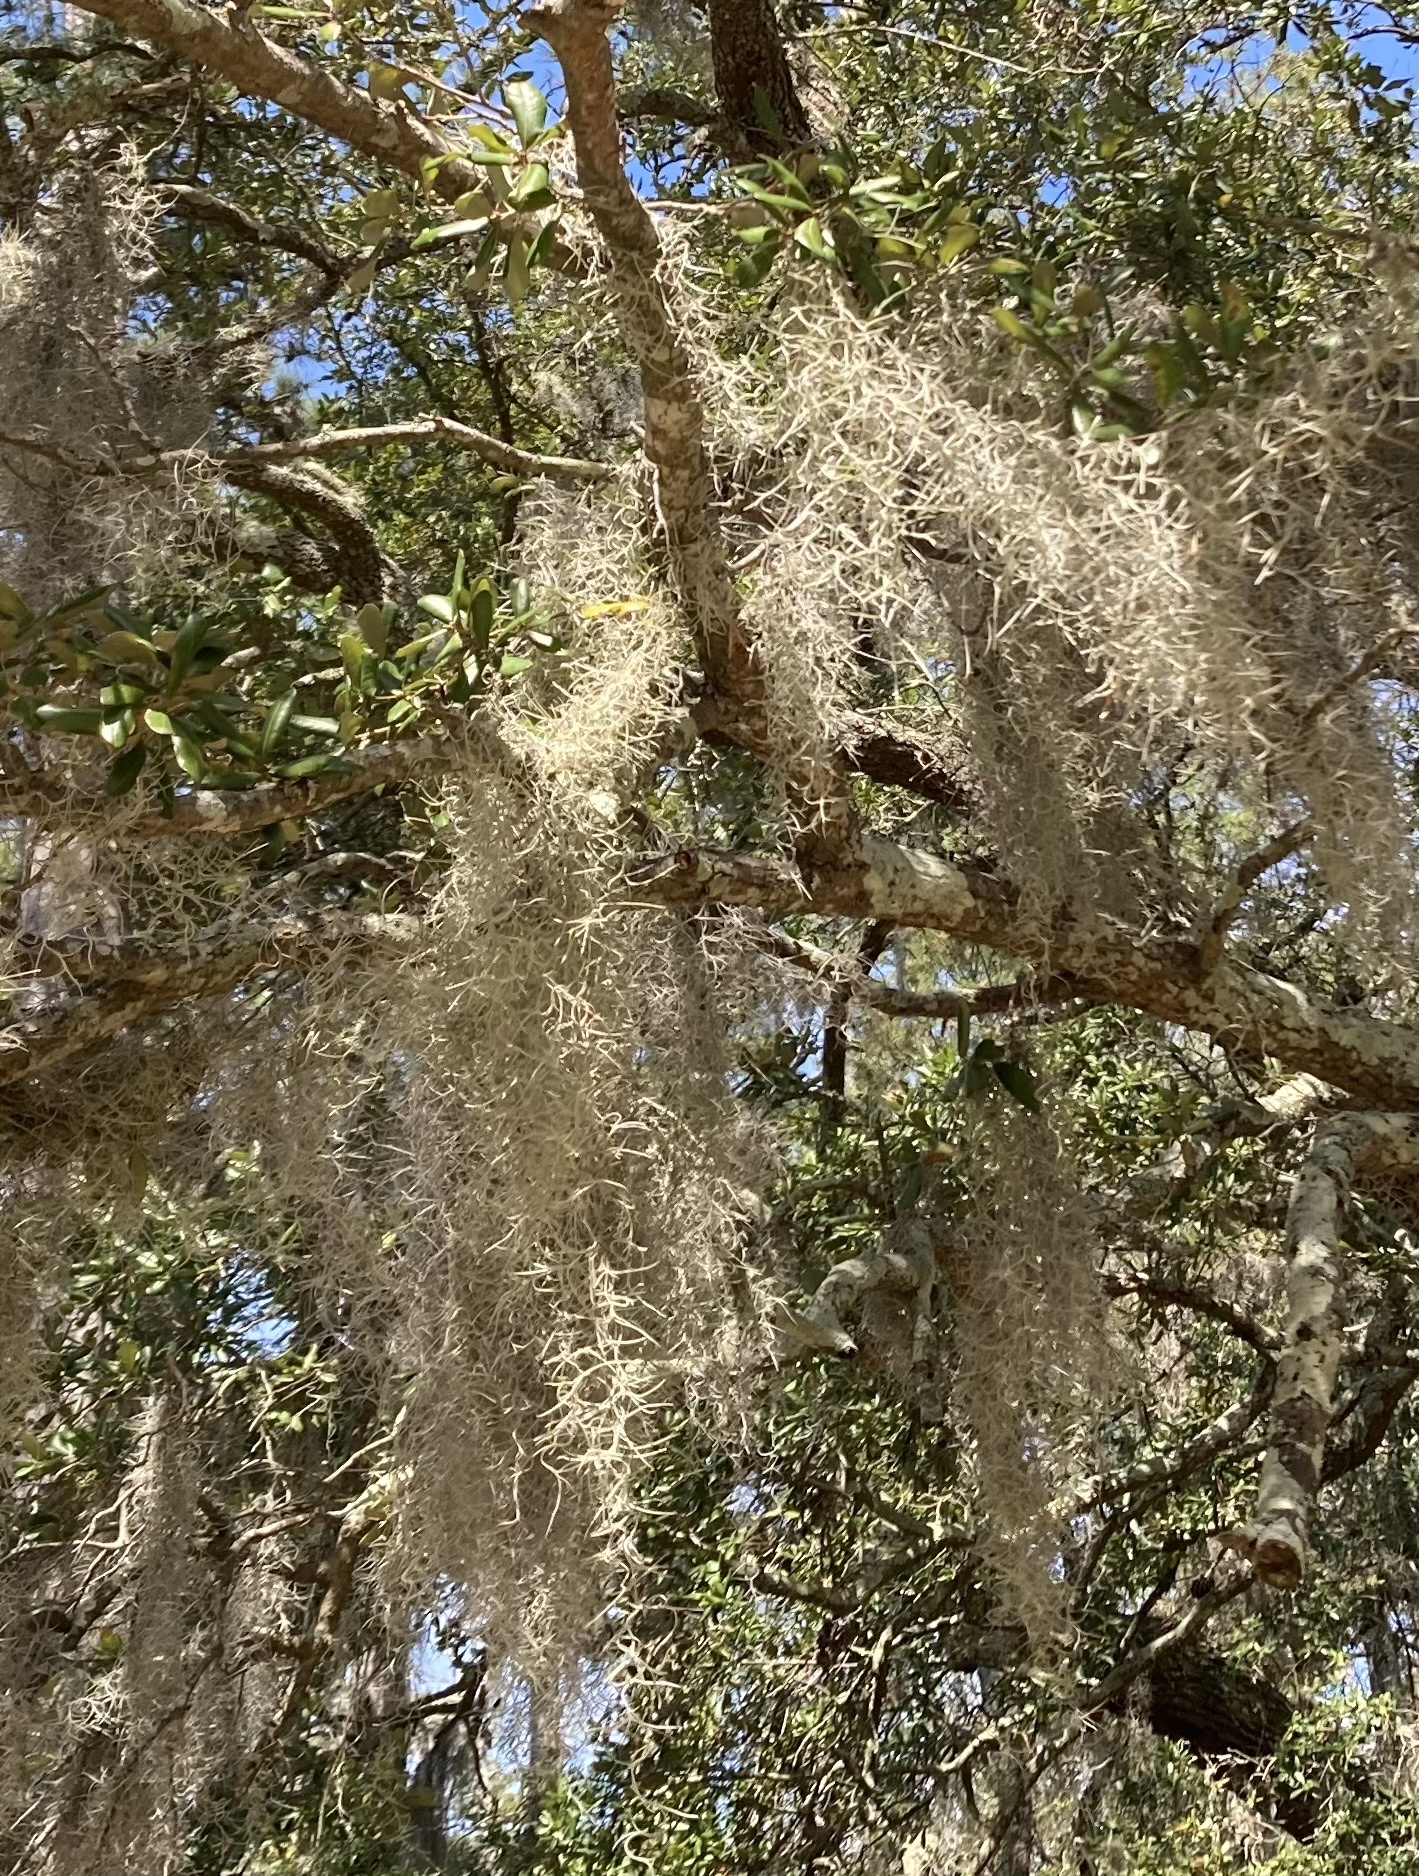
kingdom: Plantae
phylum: Tracheophyta
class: Liliopsida
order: Poales
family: Bromeliaceae
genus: Tillandsia
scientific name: Tillandsia usneoides
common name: Spanish moss
